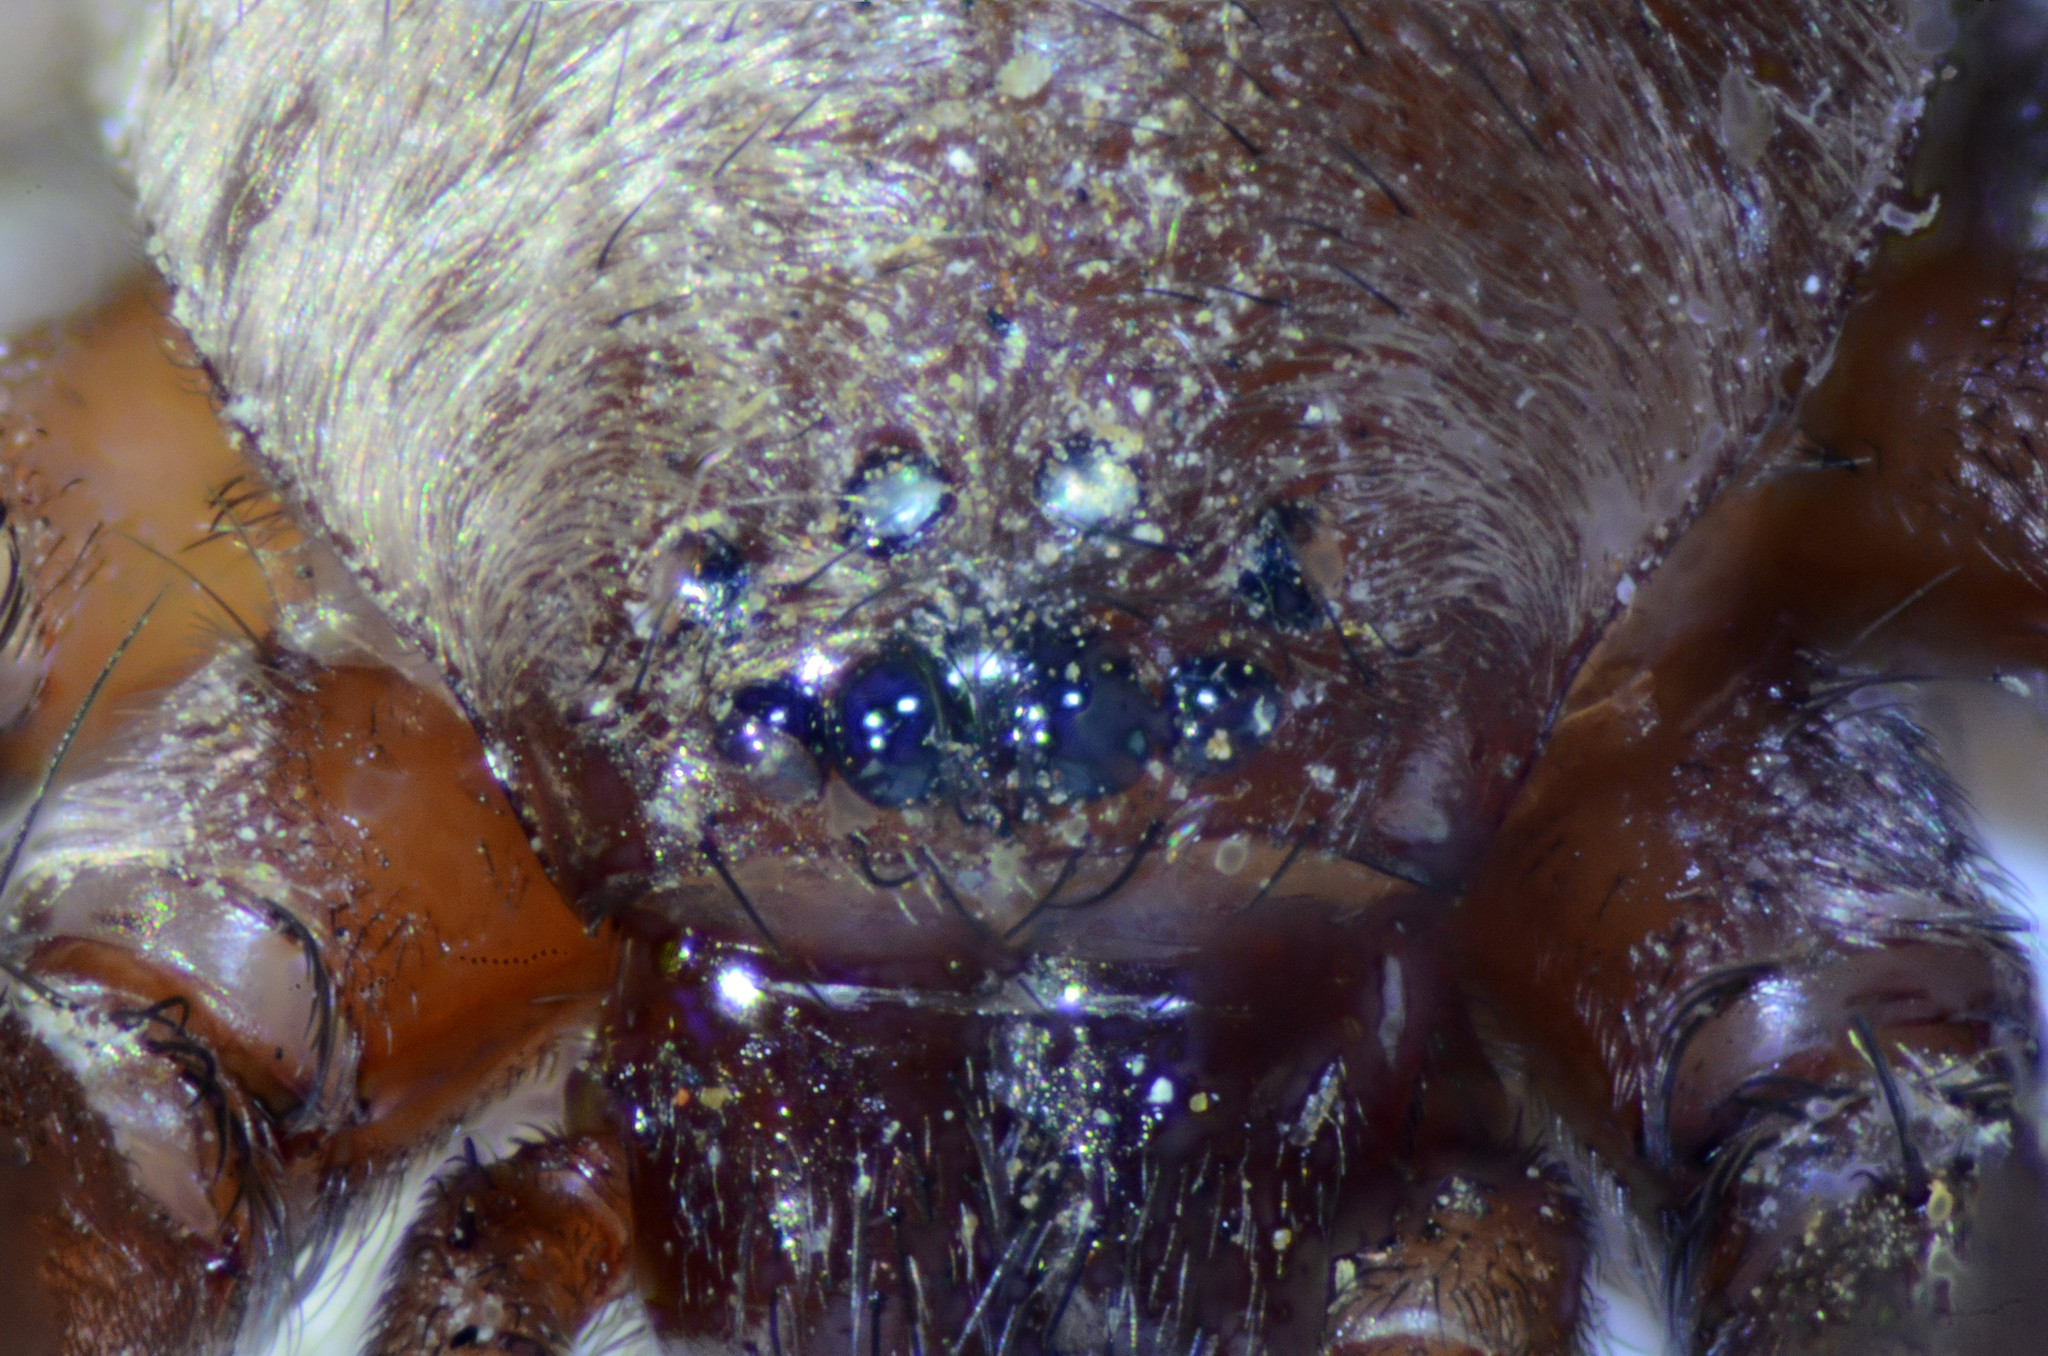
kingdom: Animalia
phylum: Arthropoda
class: Arachnida
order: Araneae
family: Gnaphosidae
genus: Scotophaeus
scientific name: Scotophaeus blackwalli
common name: Mouse spider
